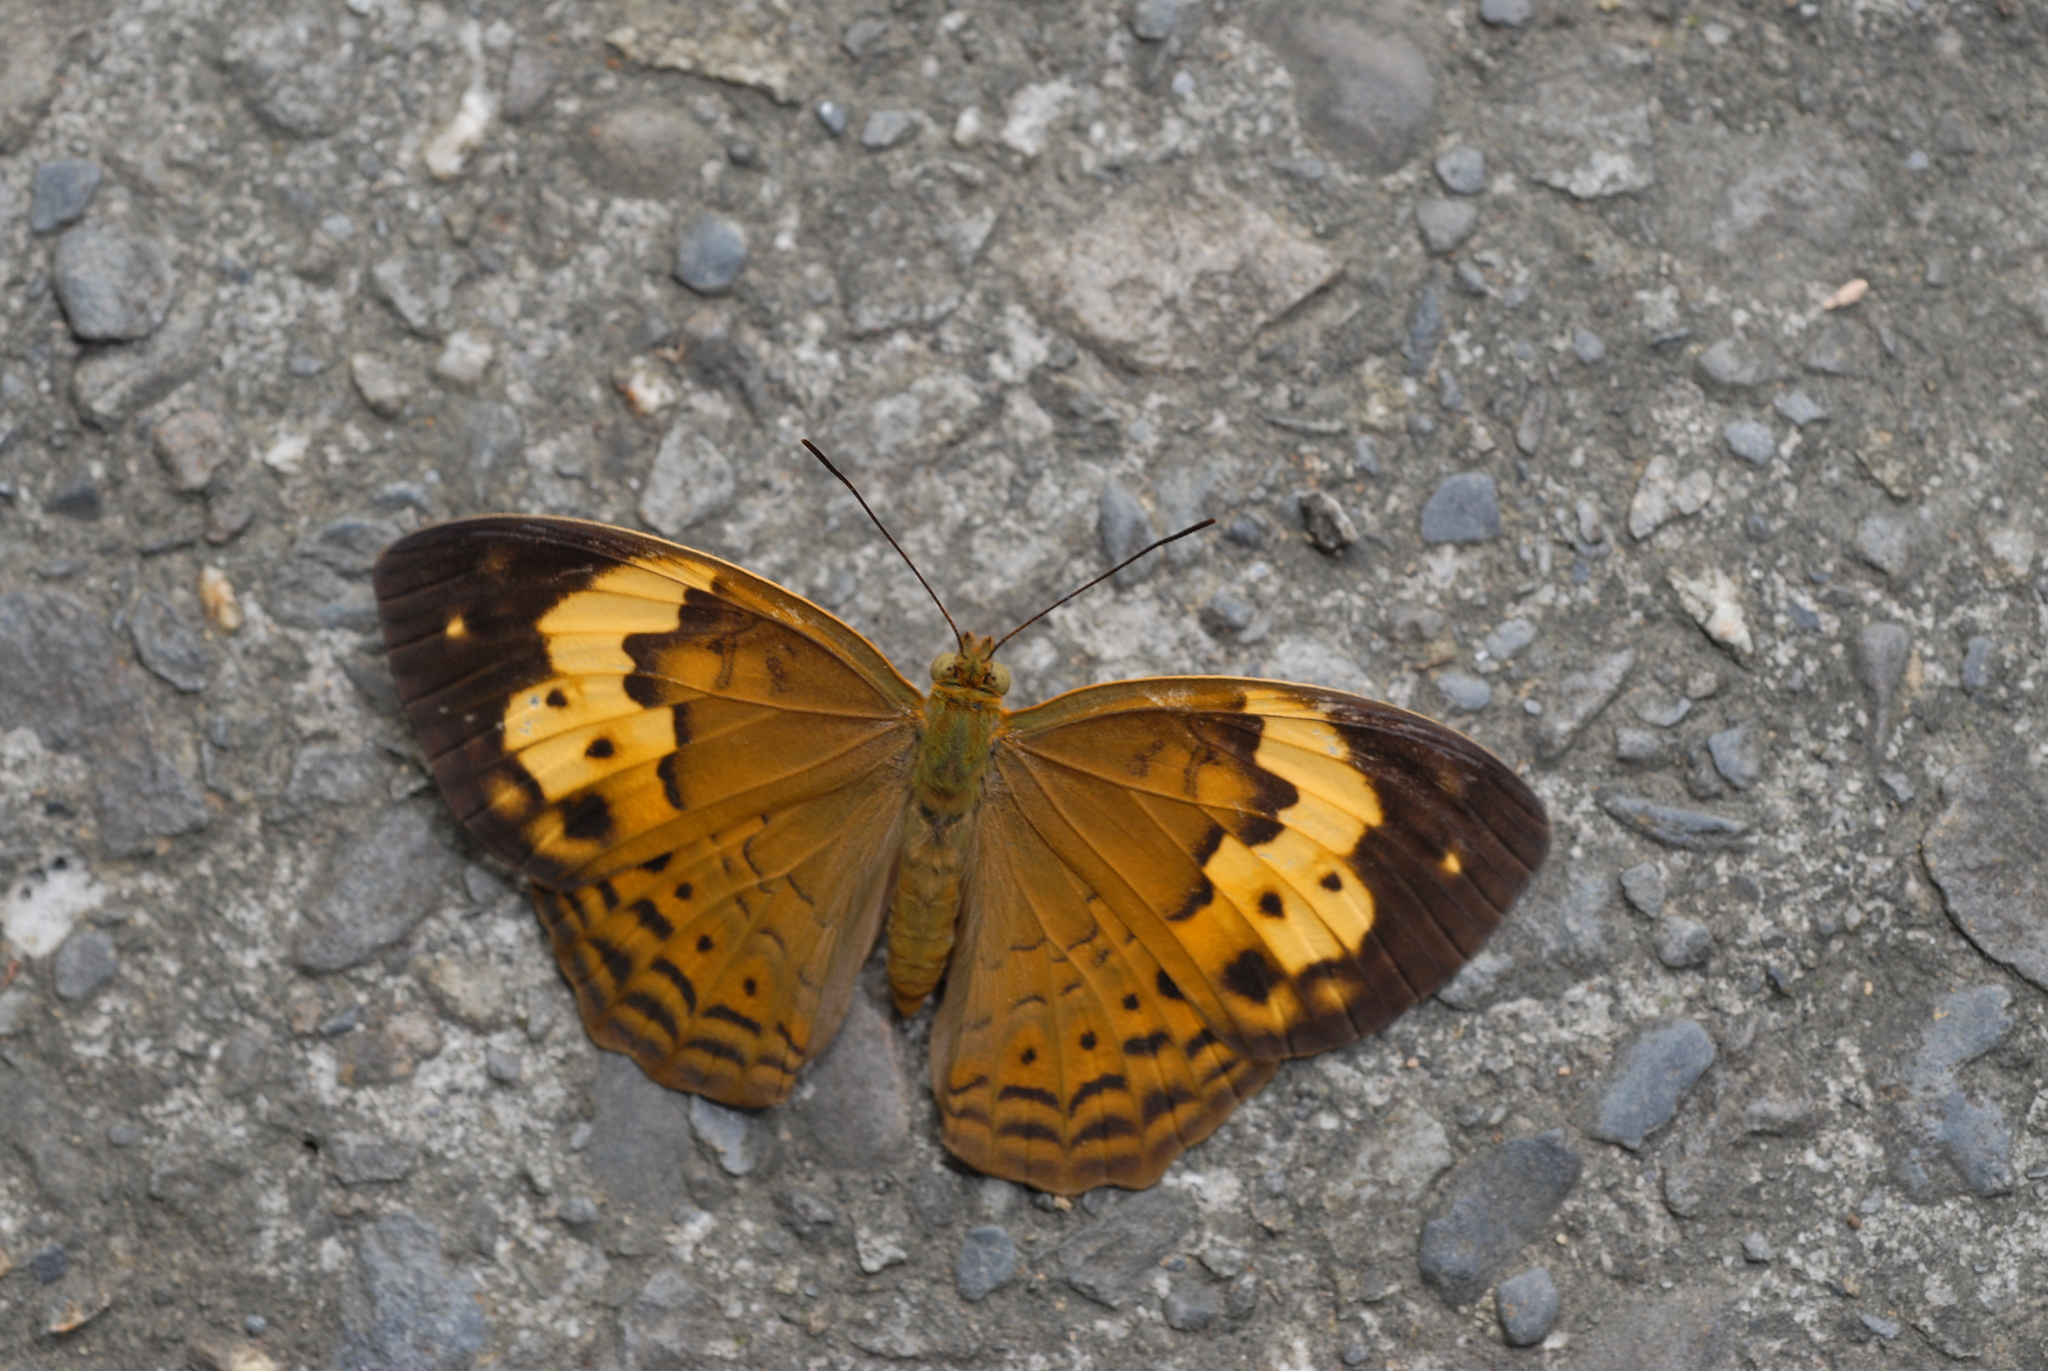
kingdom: Animalia
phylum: Arthropoda
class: Insecta
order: Lepidoptera
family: Nymphalidae
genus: Cupha
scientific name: Cupha erymanthis
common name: Rustic
